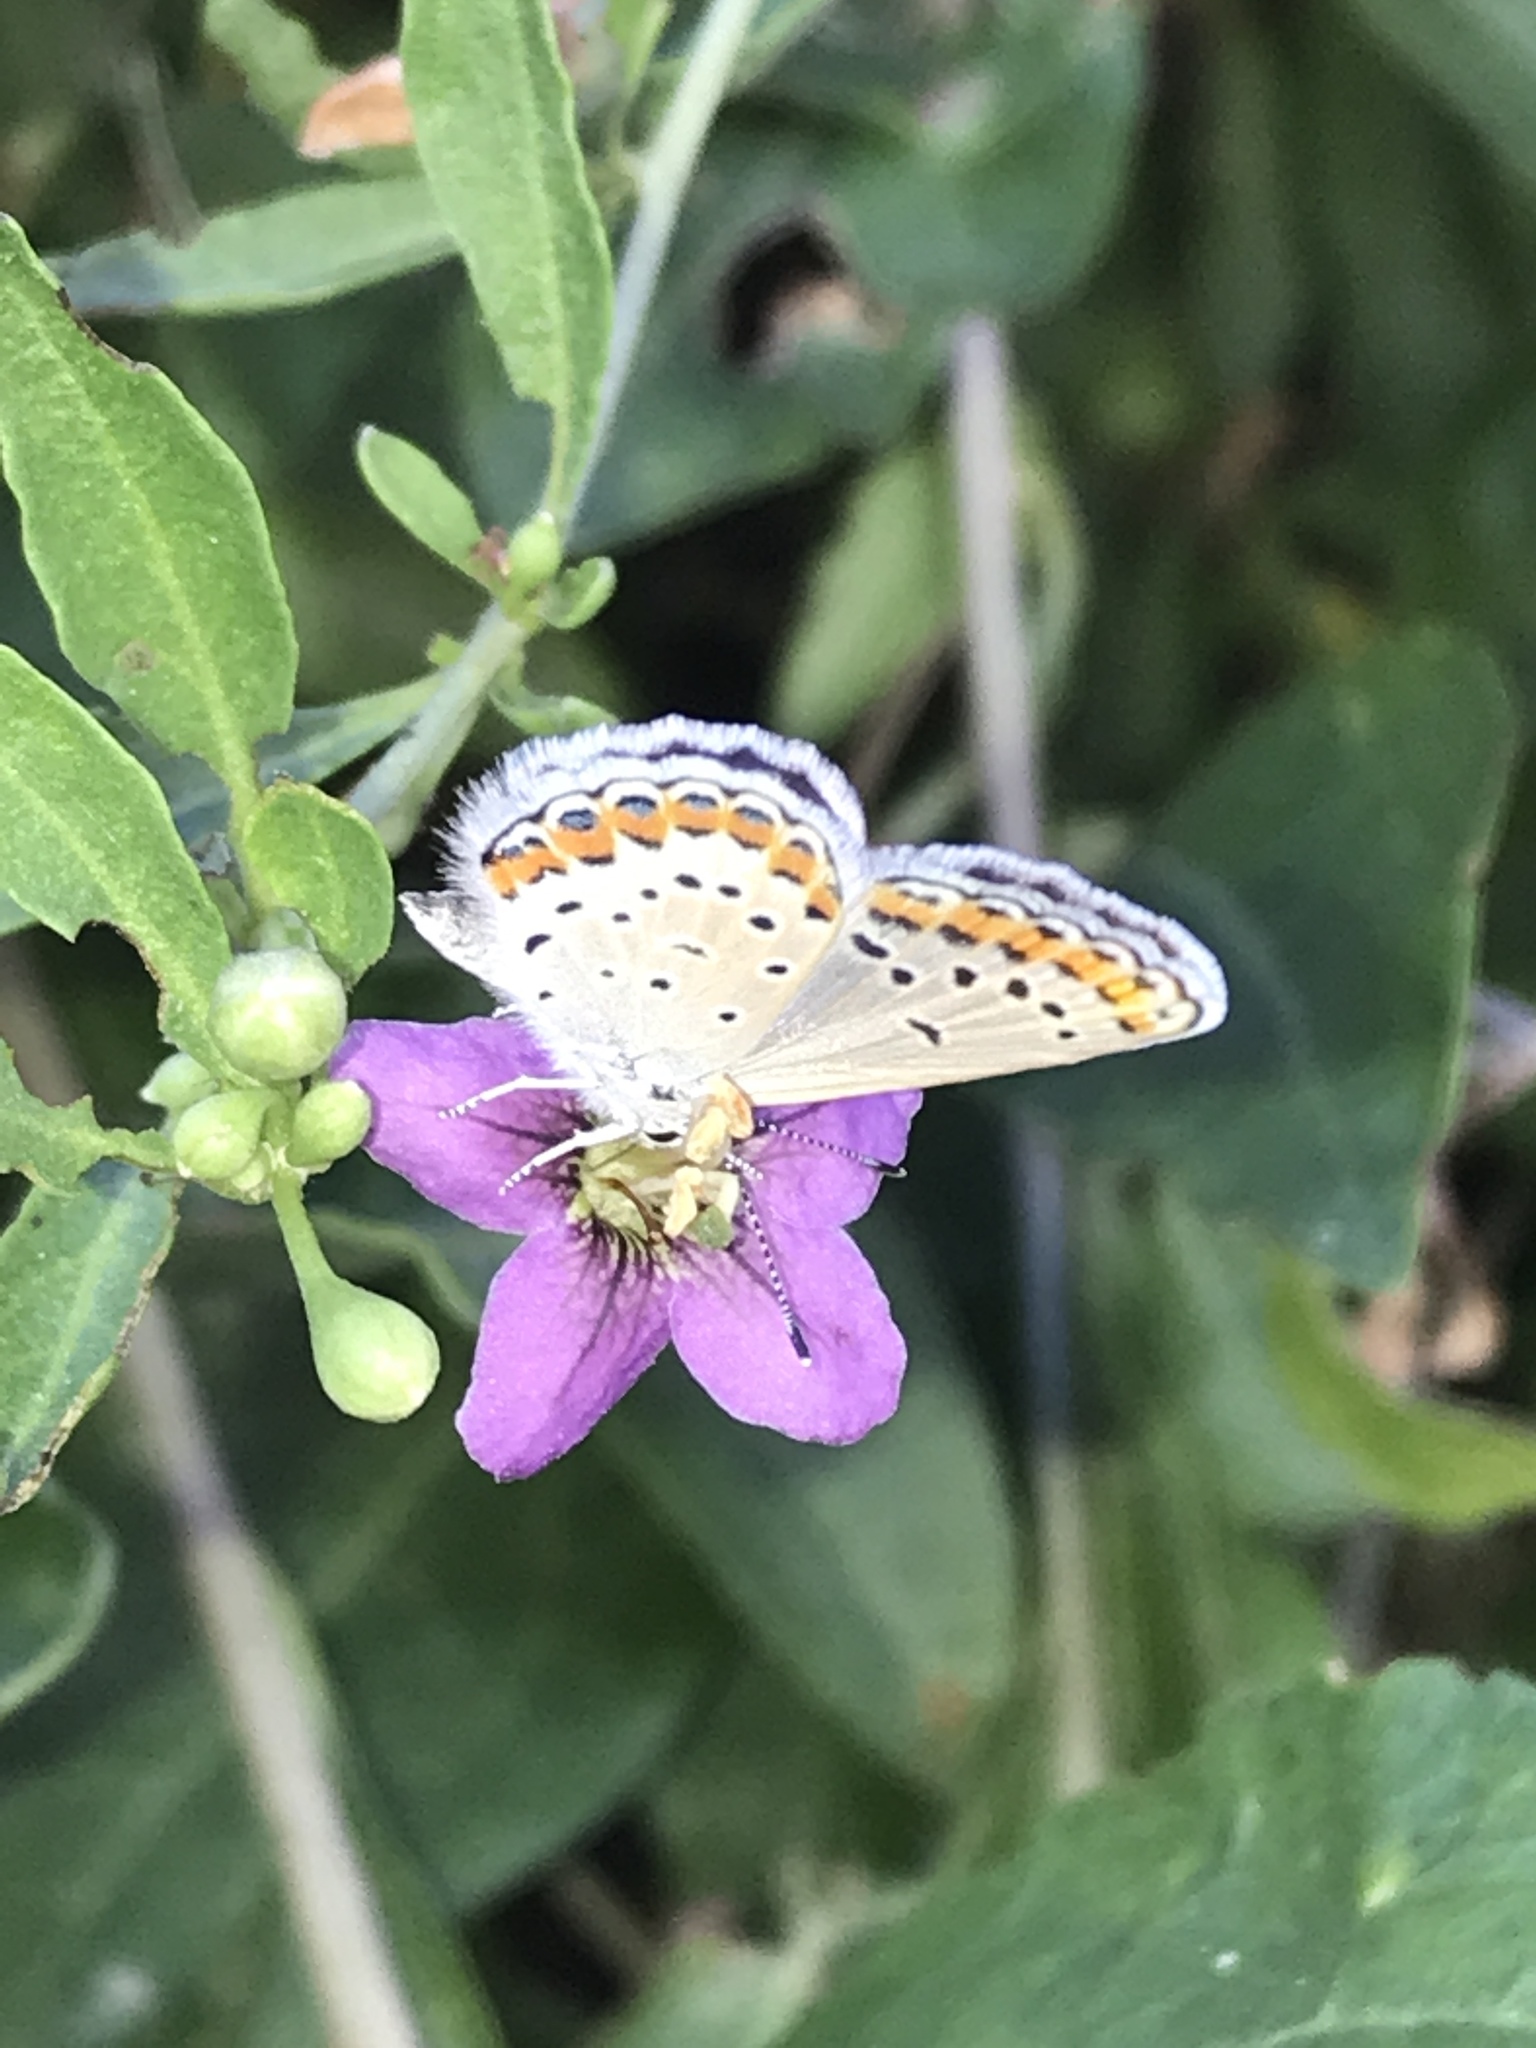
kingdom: Animalia
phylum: Arthropoda
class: Insecta
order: Lepidoptera
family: Lycaenidae
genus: Lycaeides
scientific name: Lycaeides melissa
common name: Melissa blue
